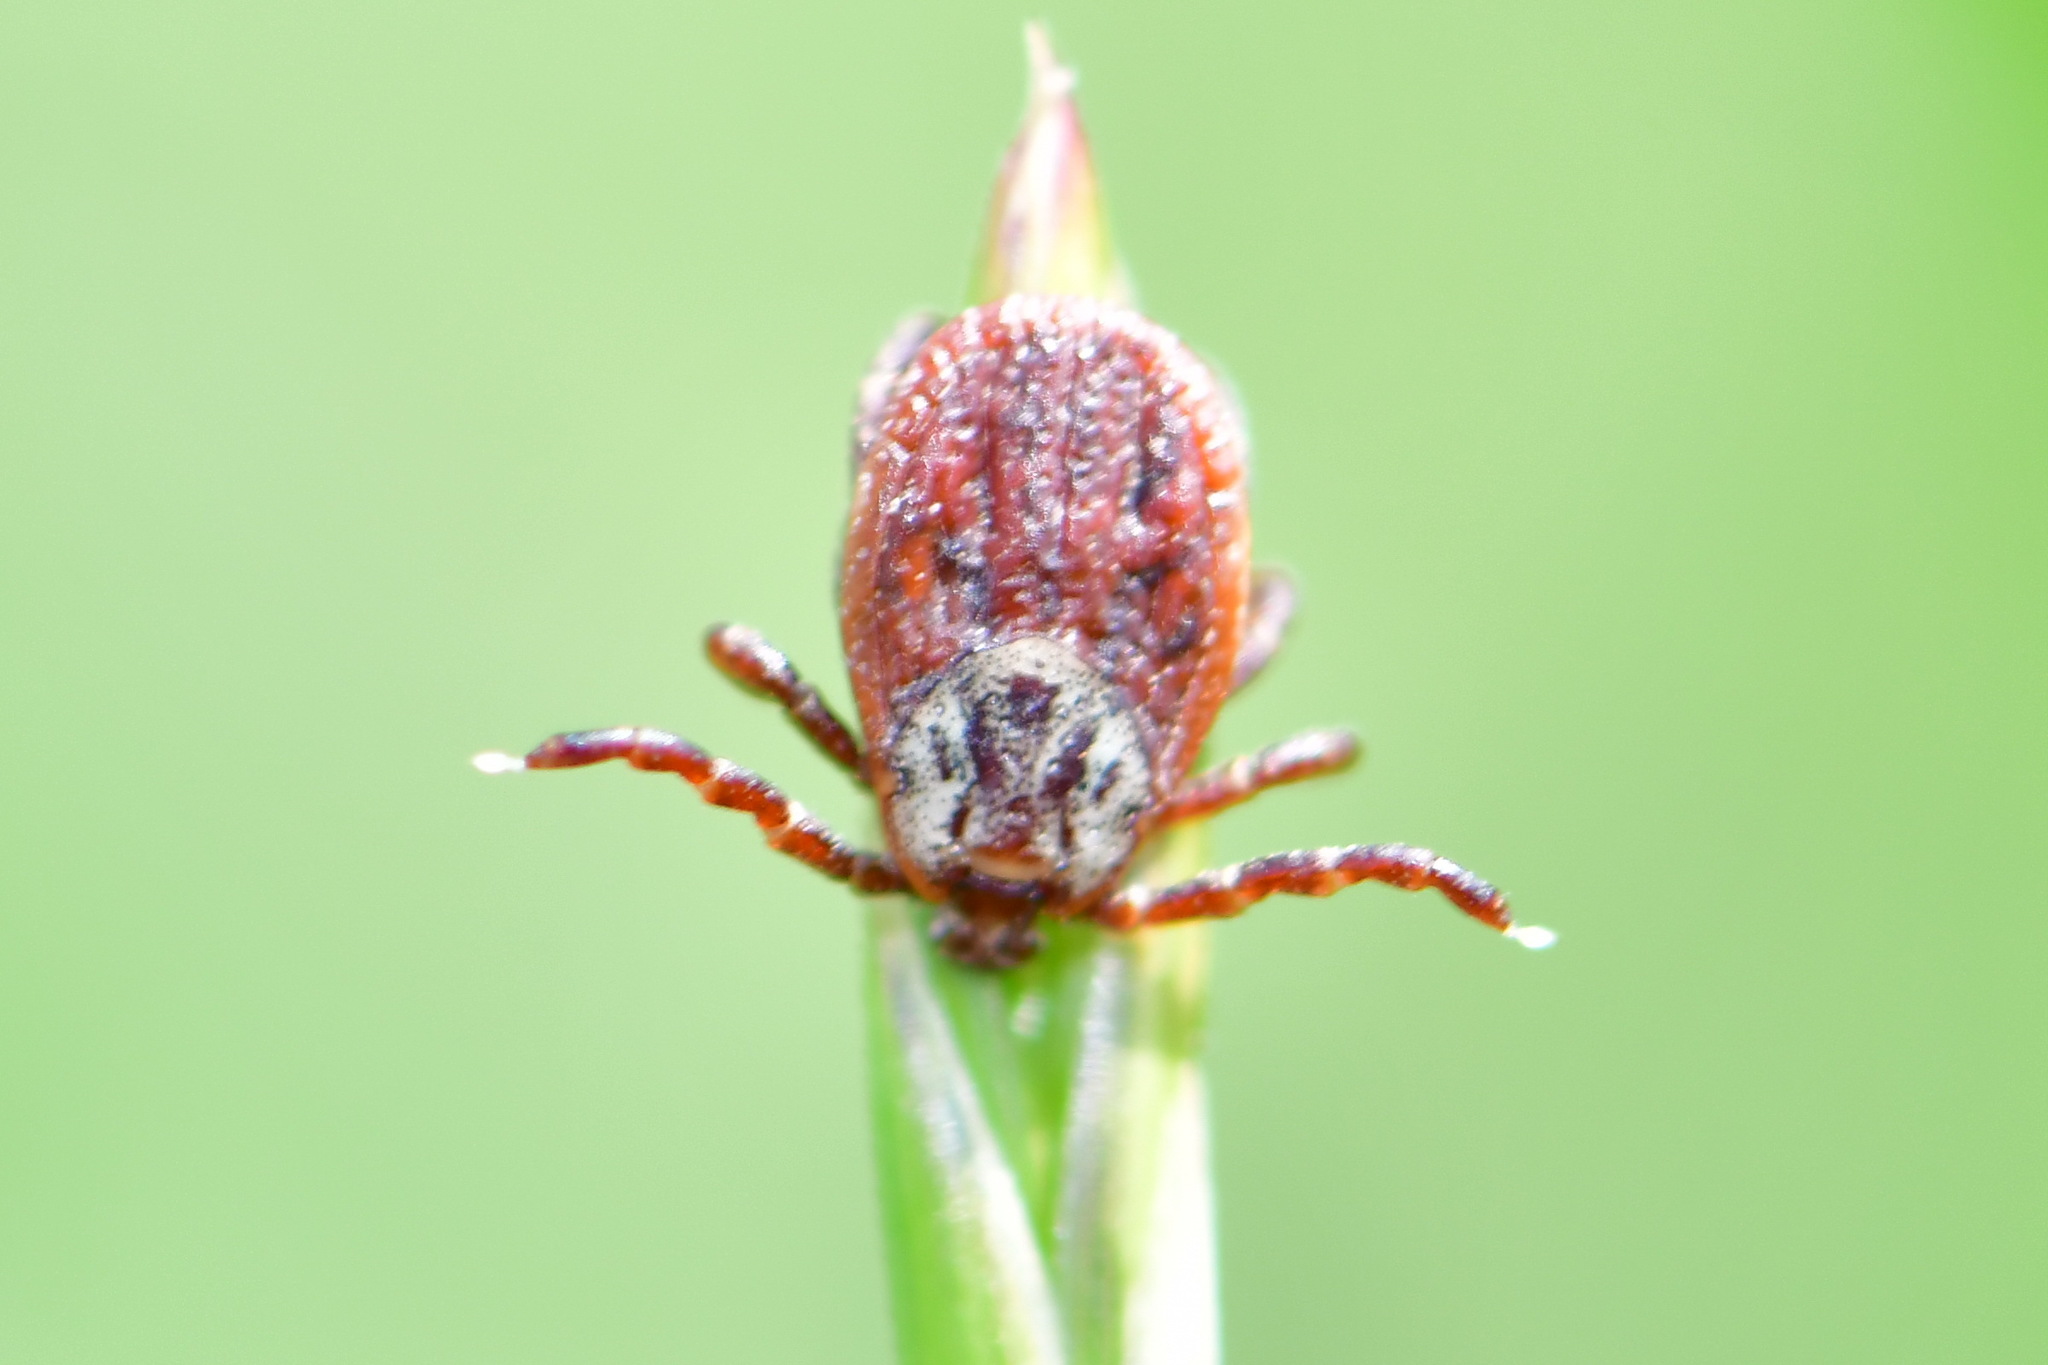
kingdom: Animalia
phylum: Arthropoda
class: Arachnida
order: Ixodida
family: Ixodidae
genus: Dermacentor
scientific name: Dermacentor reticulatus
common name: Ornate cow tick
